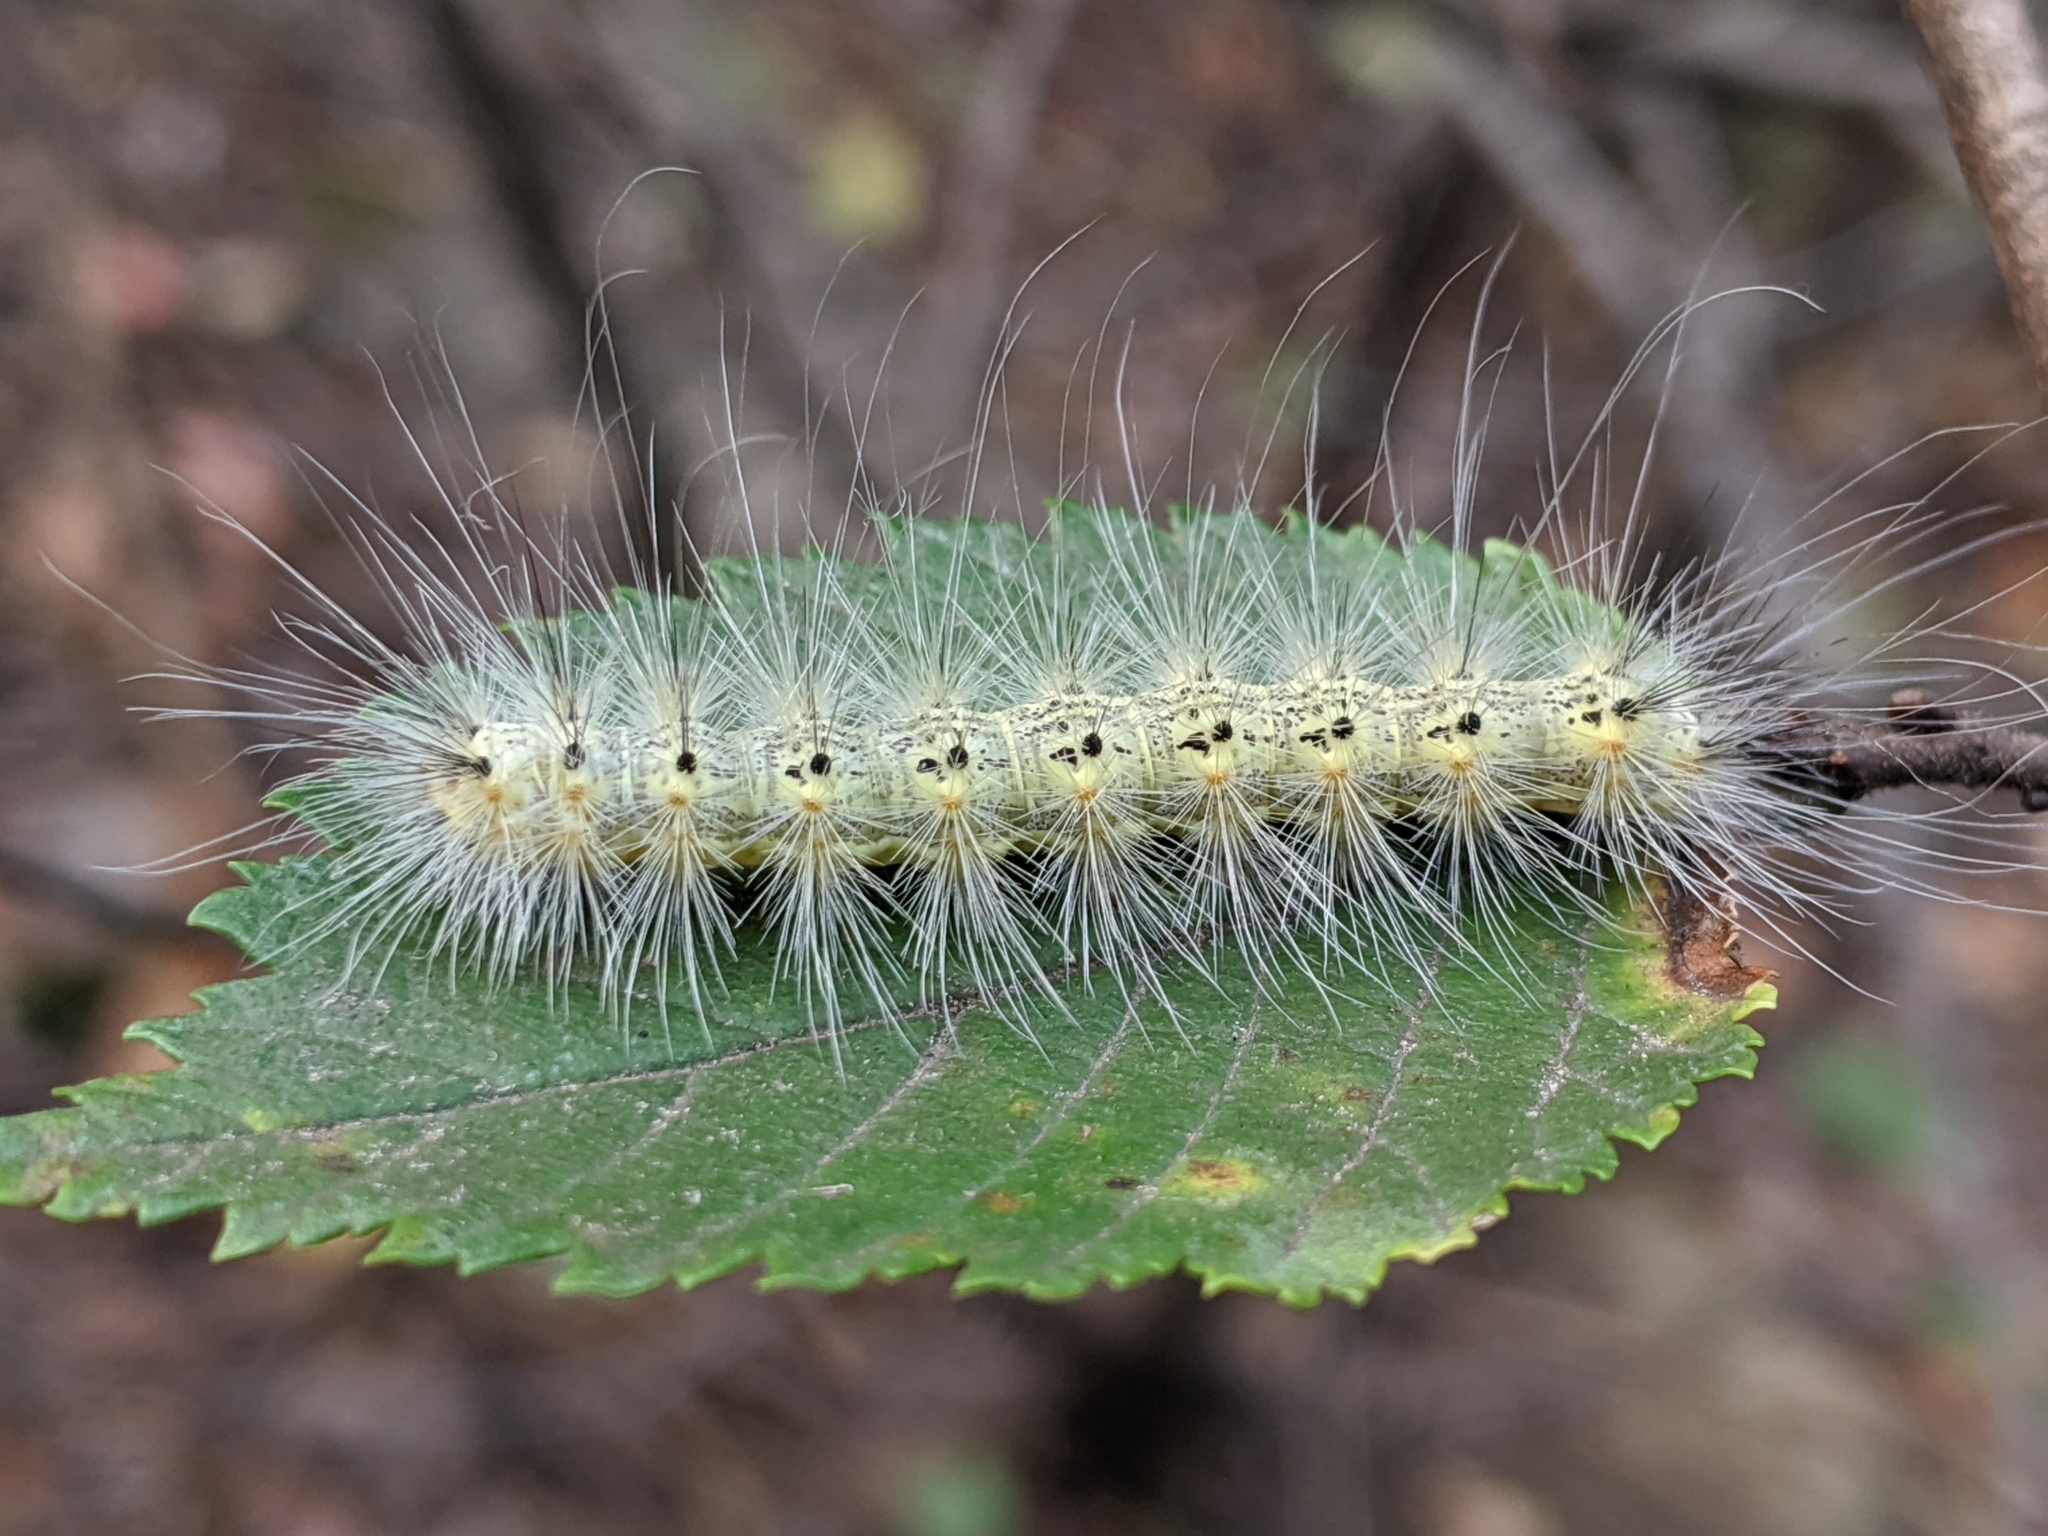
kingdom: Animalia
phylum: Arthropoda
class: Insecta
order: Lepidoptera
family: Erebidae
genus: Hyphantria
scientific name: Hyphantria cunea
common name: American white moth
